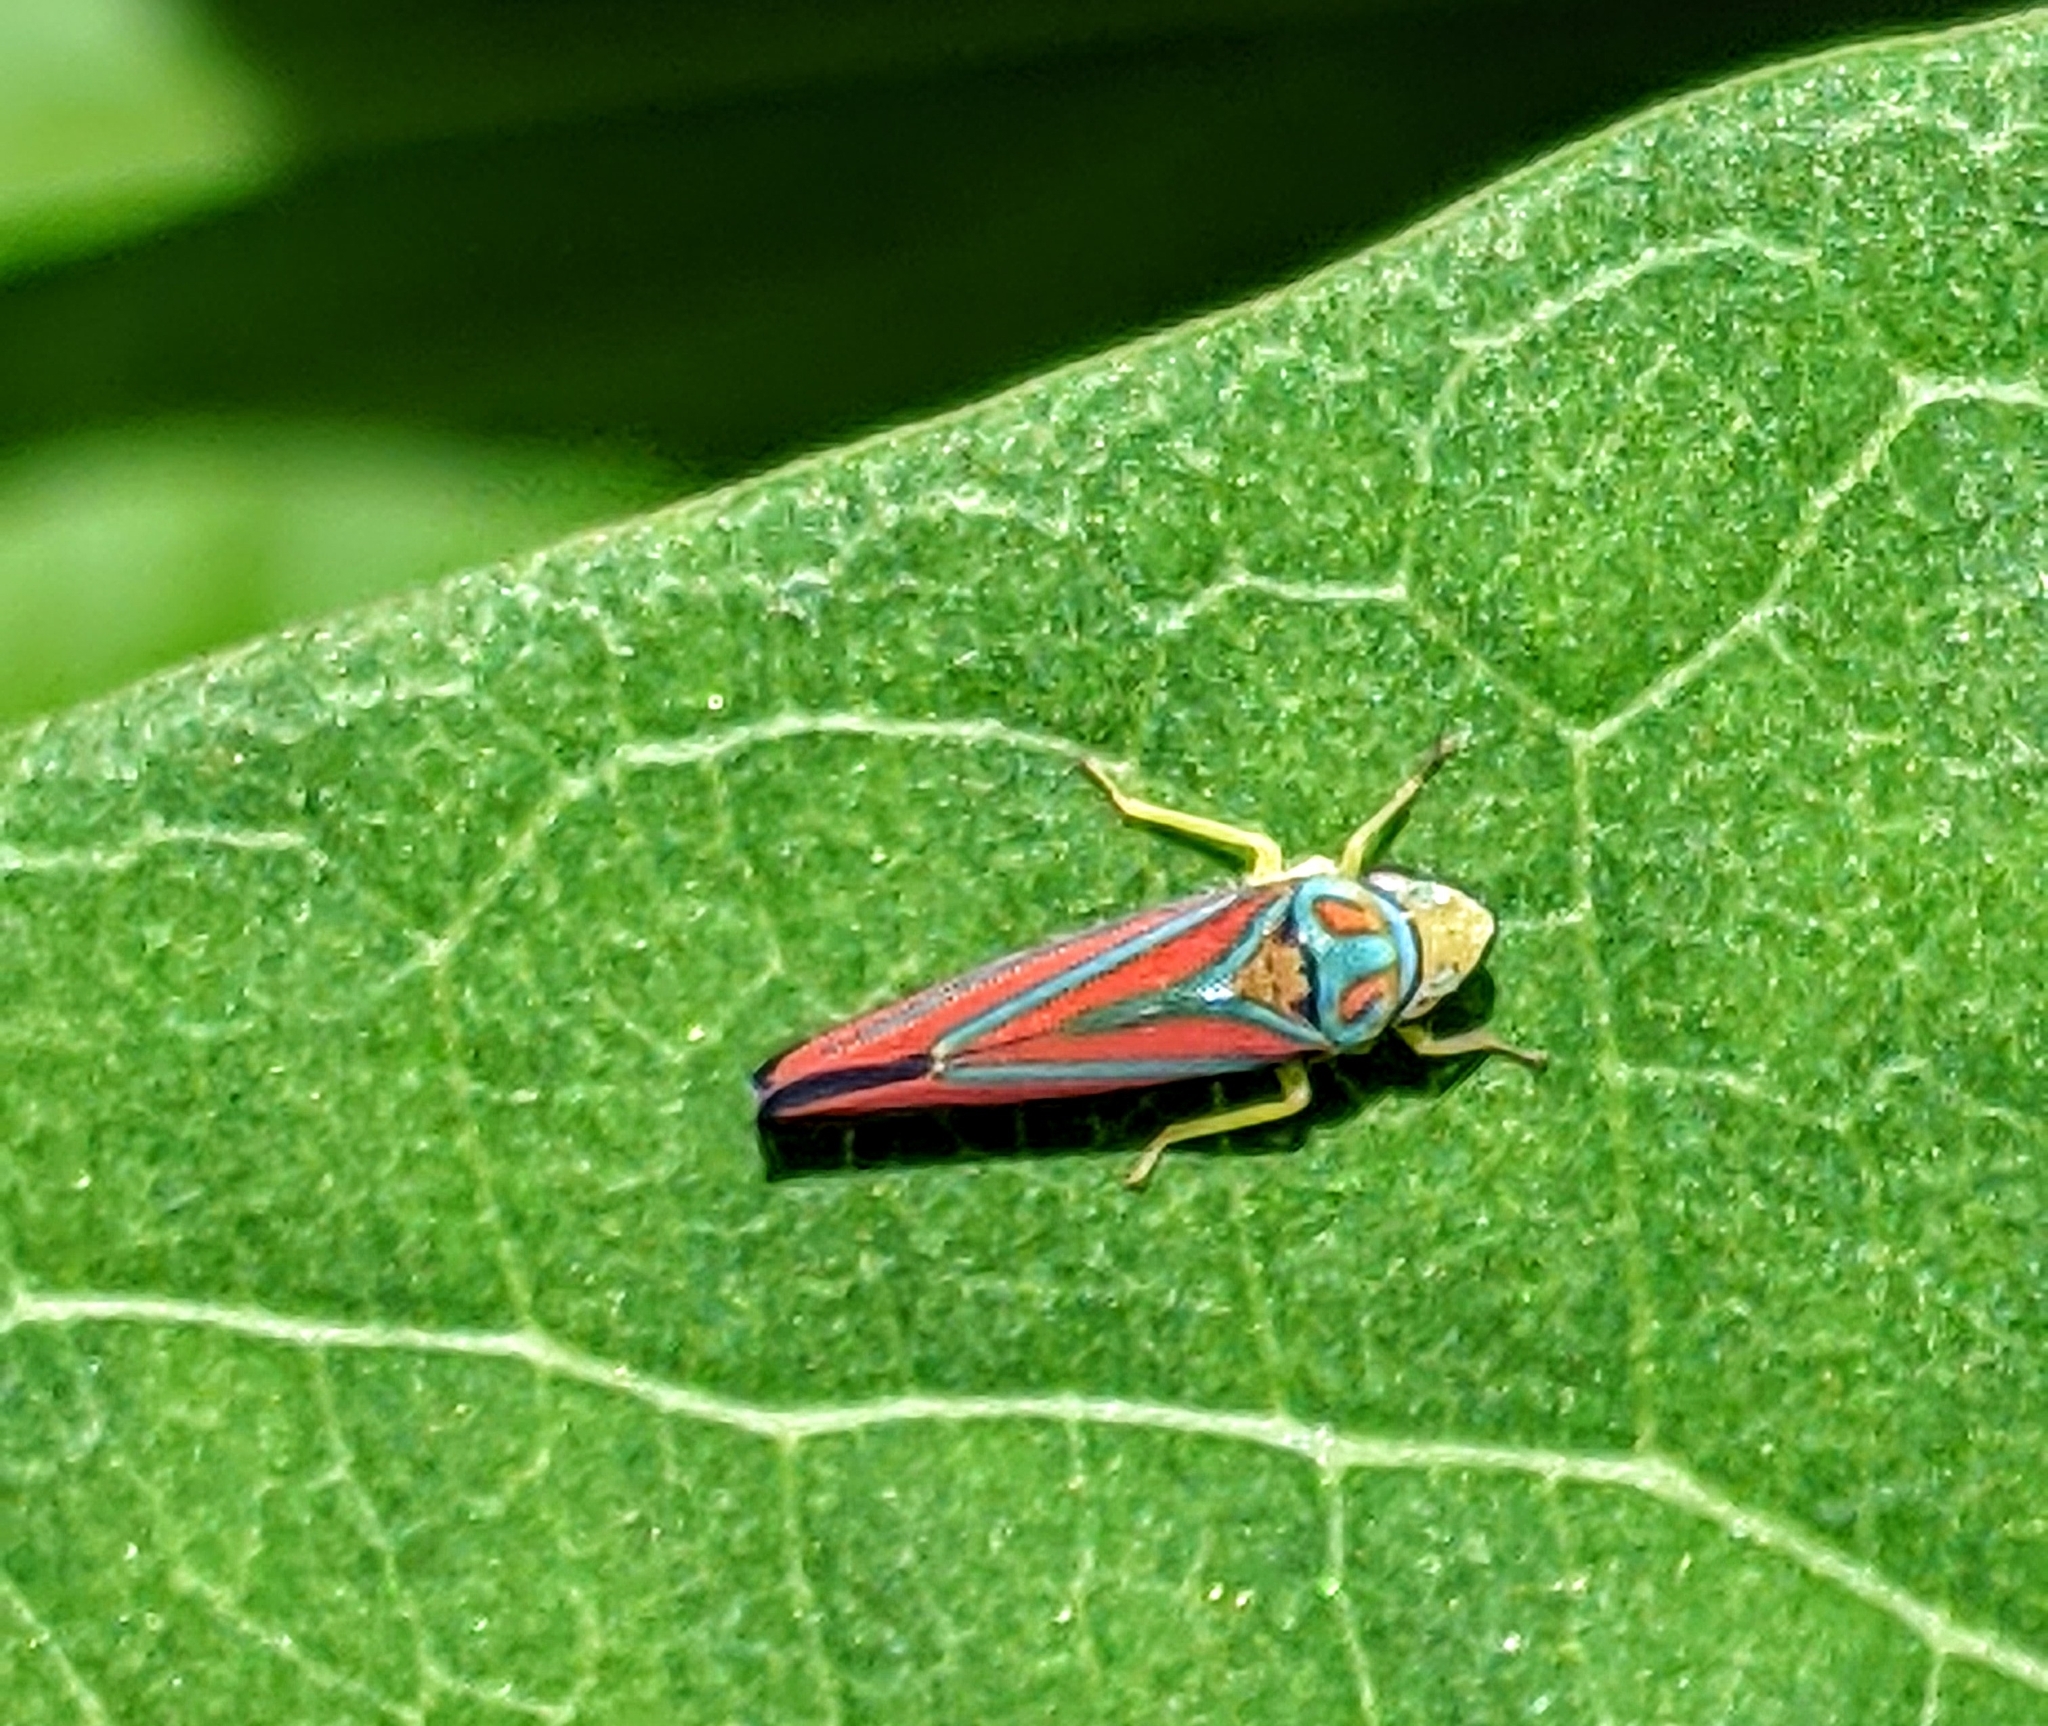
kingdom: Animalia
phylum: Arthropoda
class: Insecta
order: Hemiptera
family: Cicadellidae
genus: Graphocephala
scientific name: Graphocephala coccinea
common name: Candy-striped leafhopper
